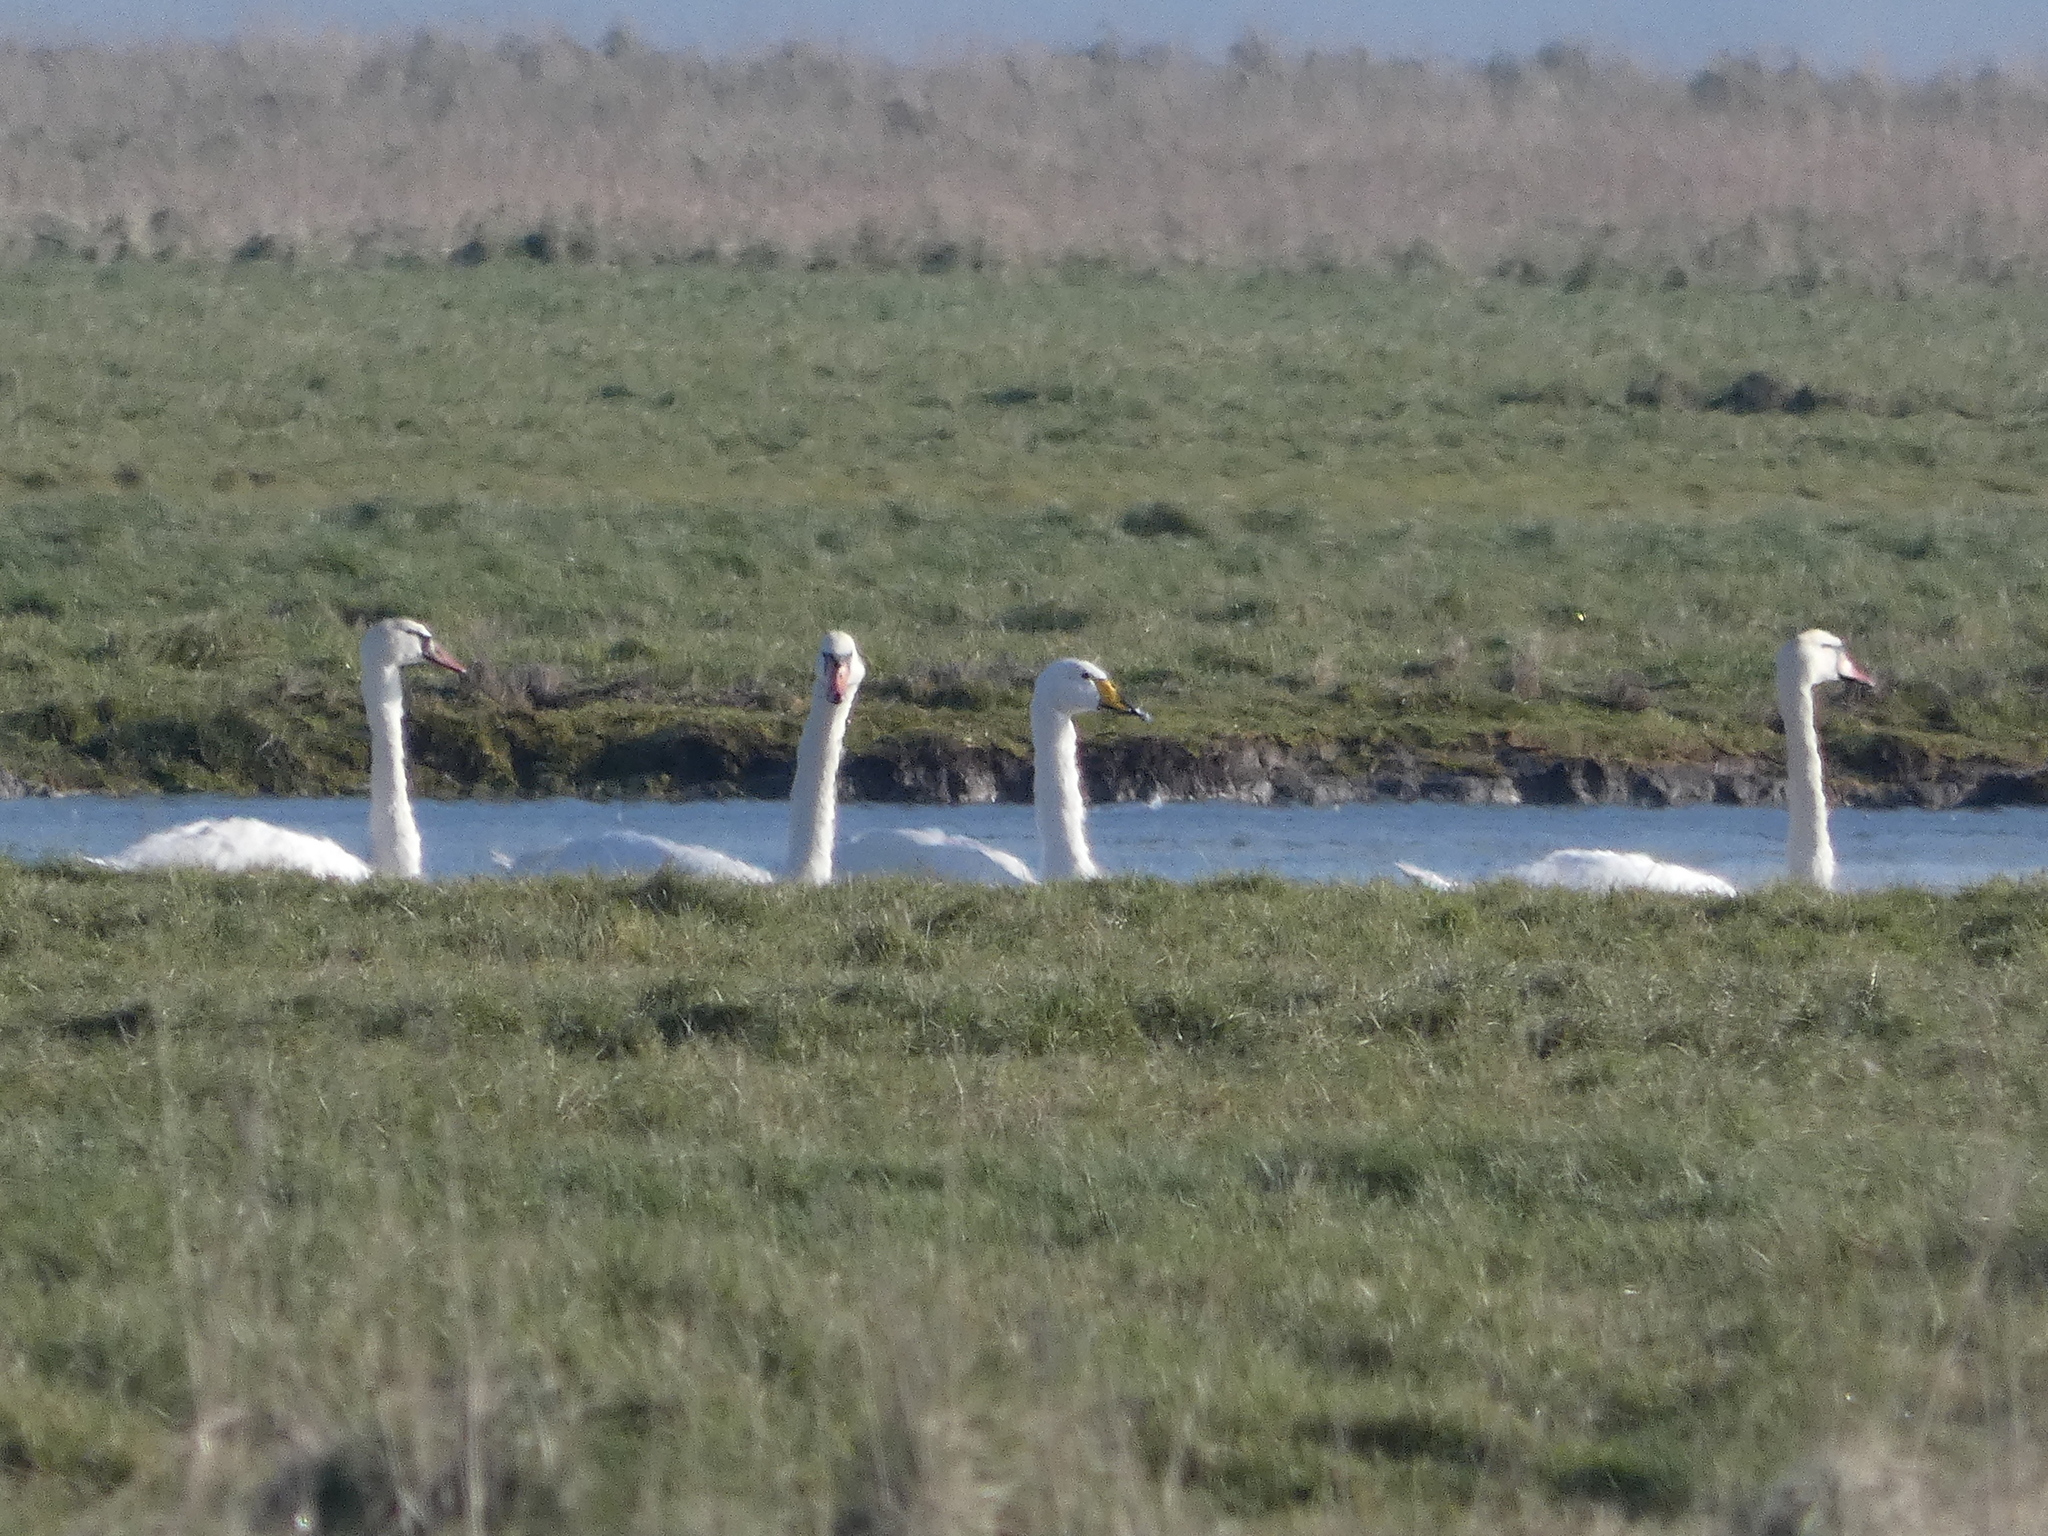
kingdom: Animalia
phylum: Chordata
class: Aves
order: Anseriformes
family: Anatidae
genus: Cygnus
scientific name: Cygnus cygnus
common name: Whooper swan
